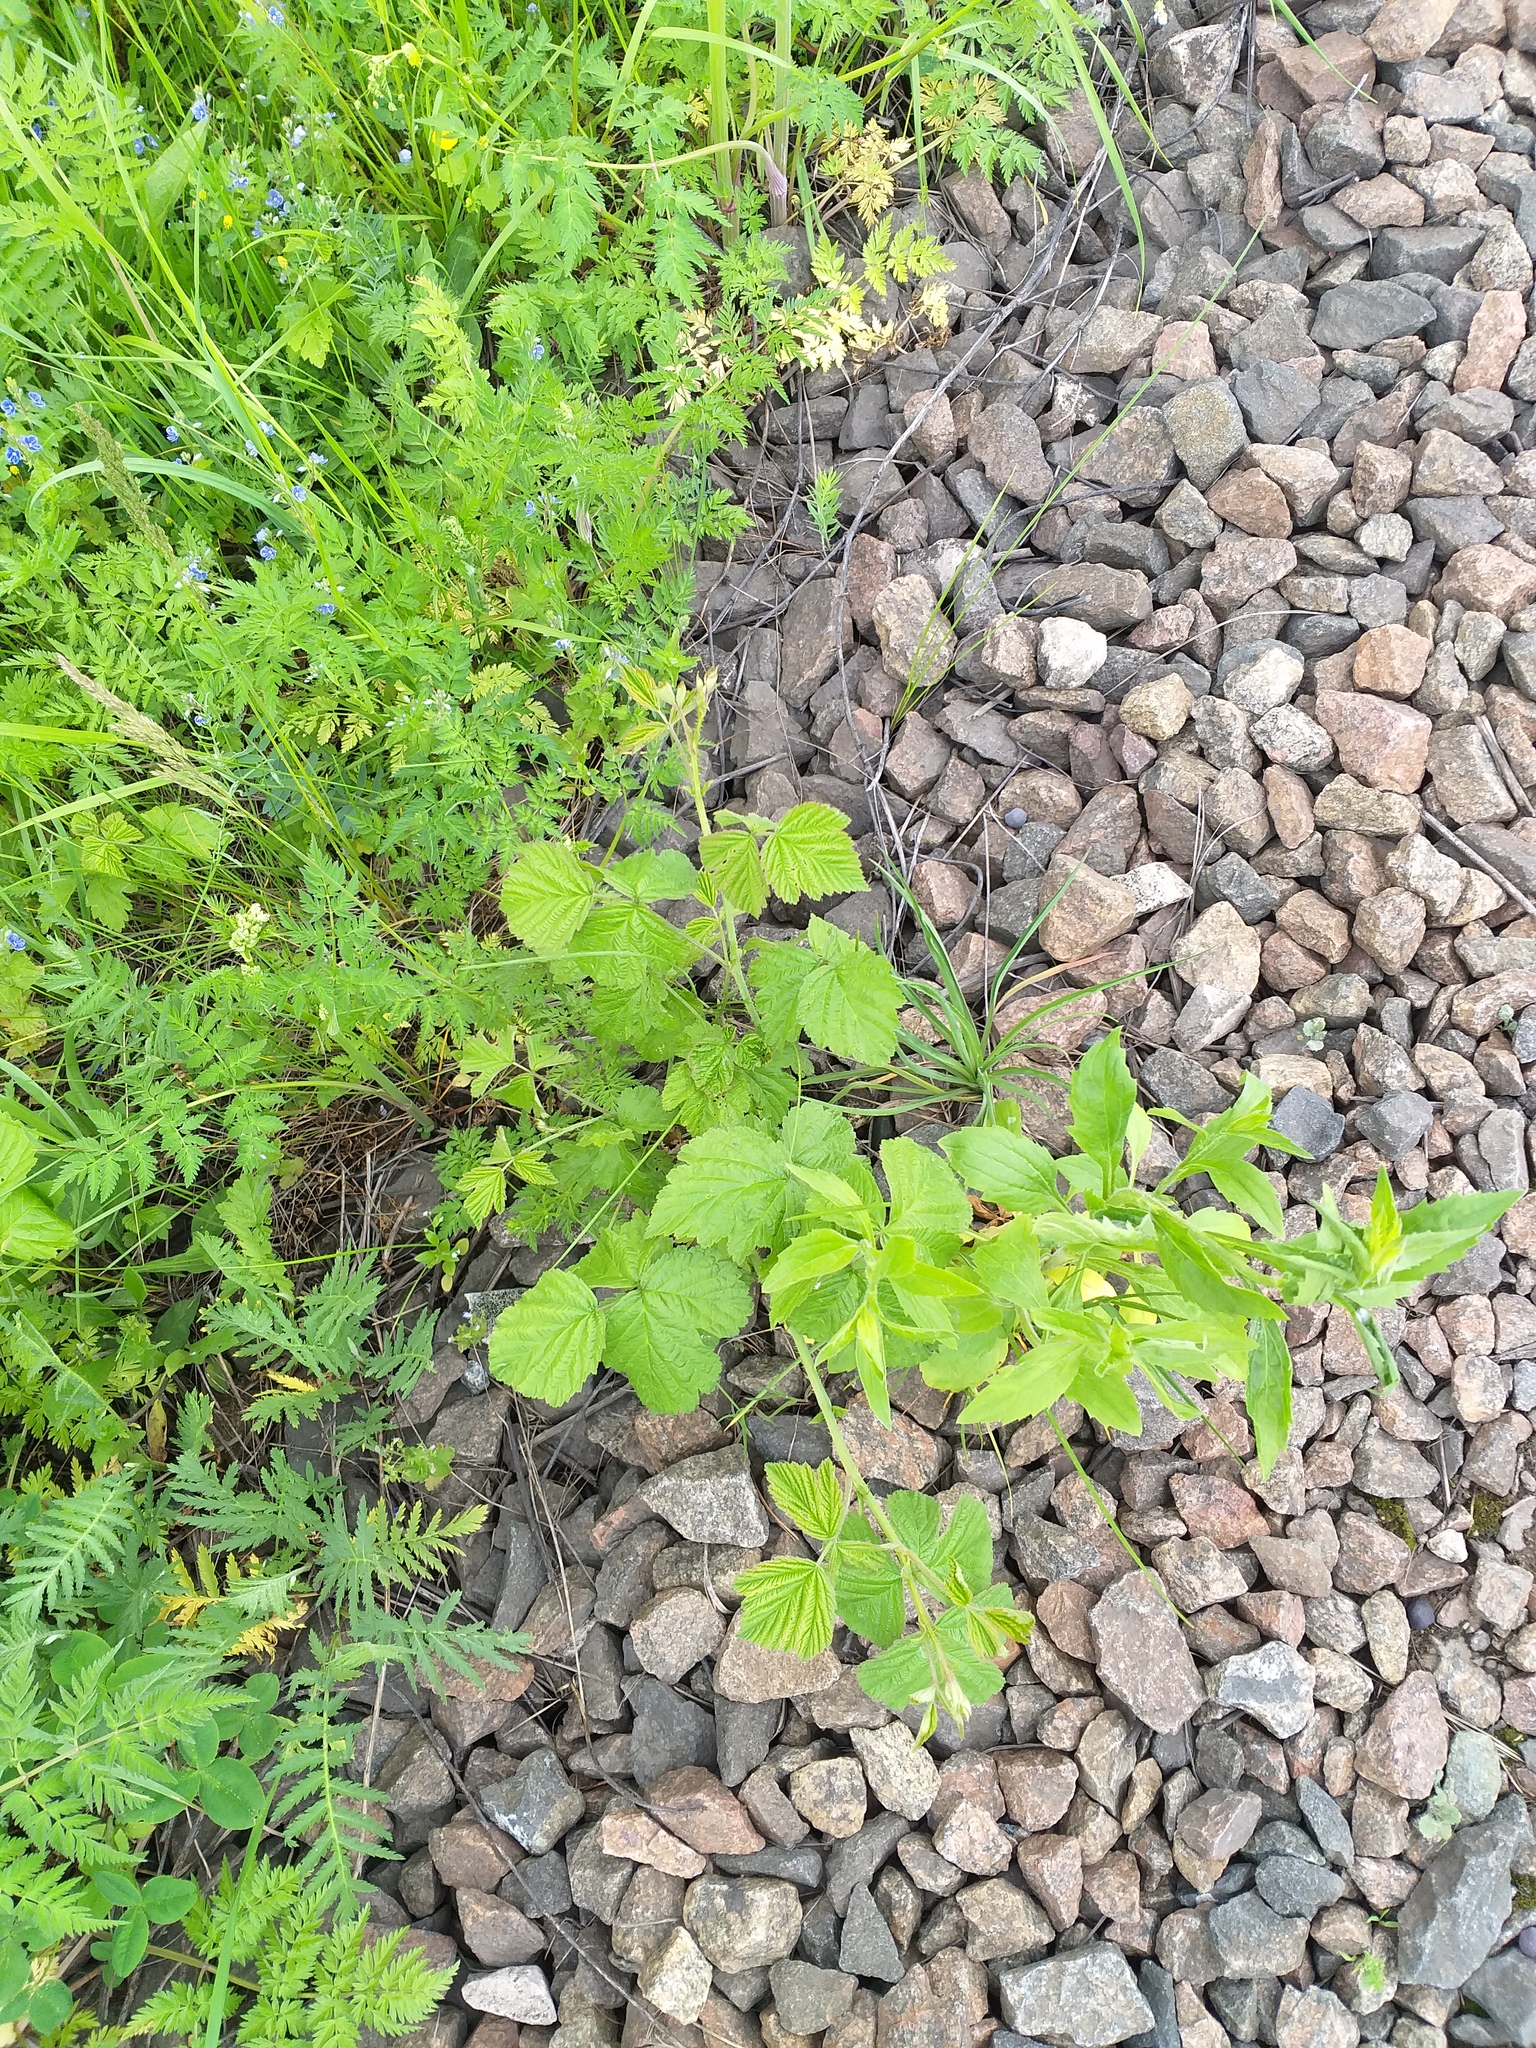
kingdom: Plantae
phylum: Tracheophyta
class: Magnoliopsida
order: Rosales
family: Rosaceae
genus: Rubus
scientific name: Rubus caesius
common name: Dewberry
